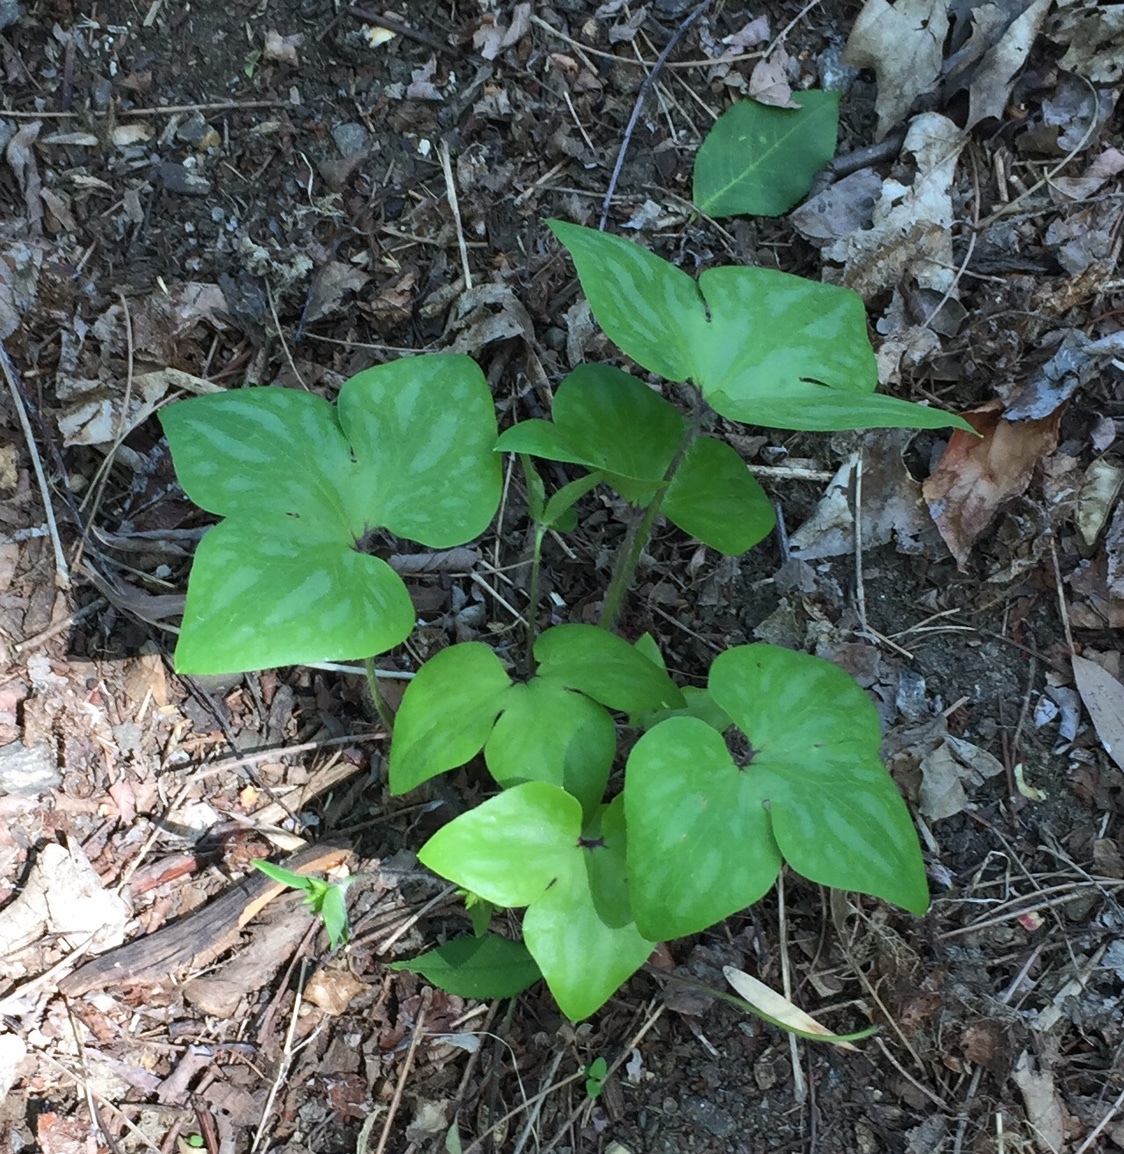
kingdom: Plantae
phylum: Tracheophyta
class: Magnoliopsida
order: Ranunculales
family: Ranunculaceae
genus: Hepatica
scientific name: Hepatica acutiloba
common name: Sharp-lobed hepatica
